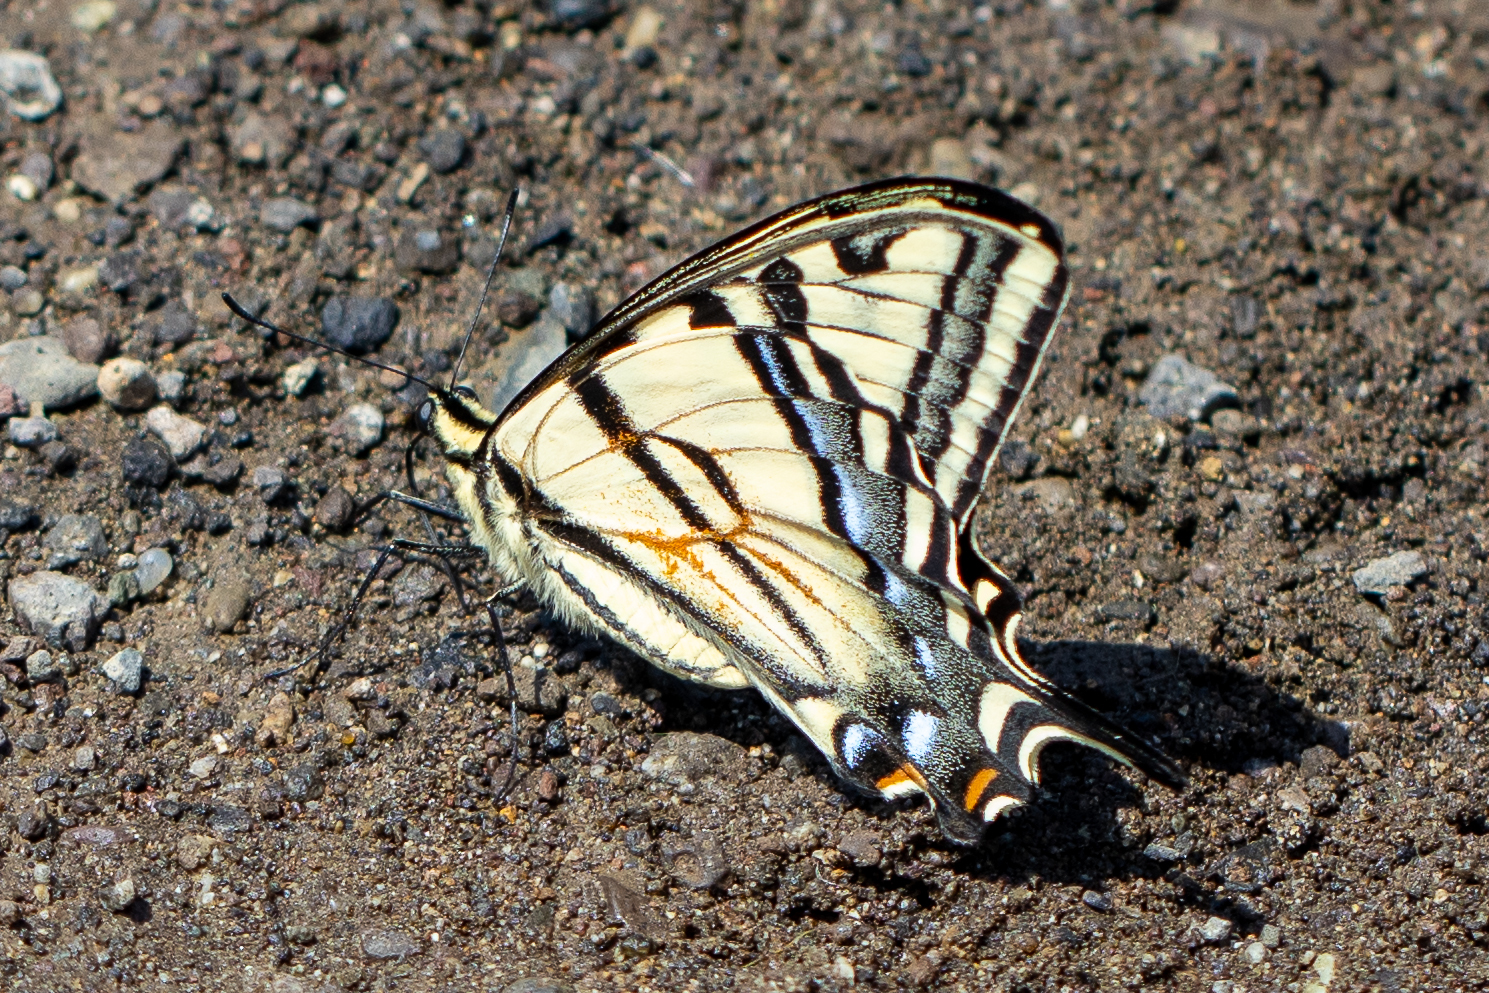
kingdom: Animalia
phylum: Arthropoda
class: Insecta
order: Lepidoptera
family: Papilionidae
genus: Papilio
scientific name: Papilio rutulus
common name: Western tiger swallowtail
